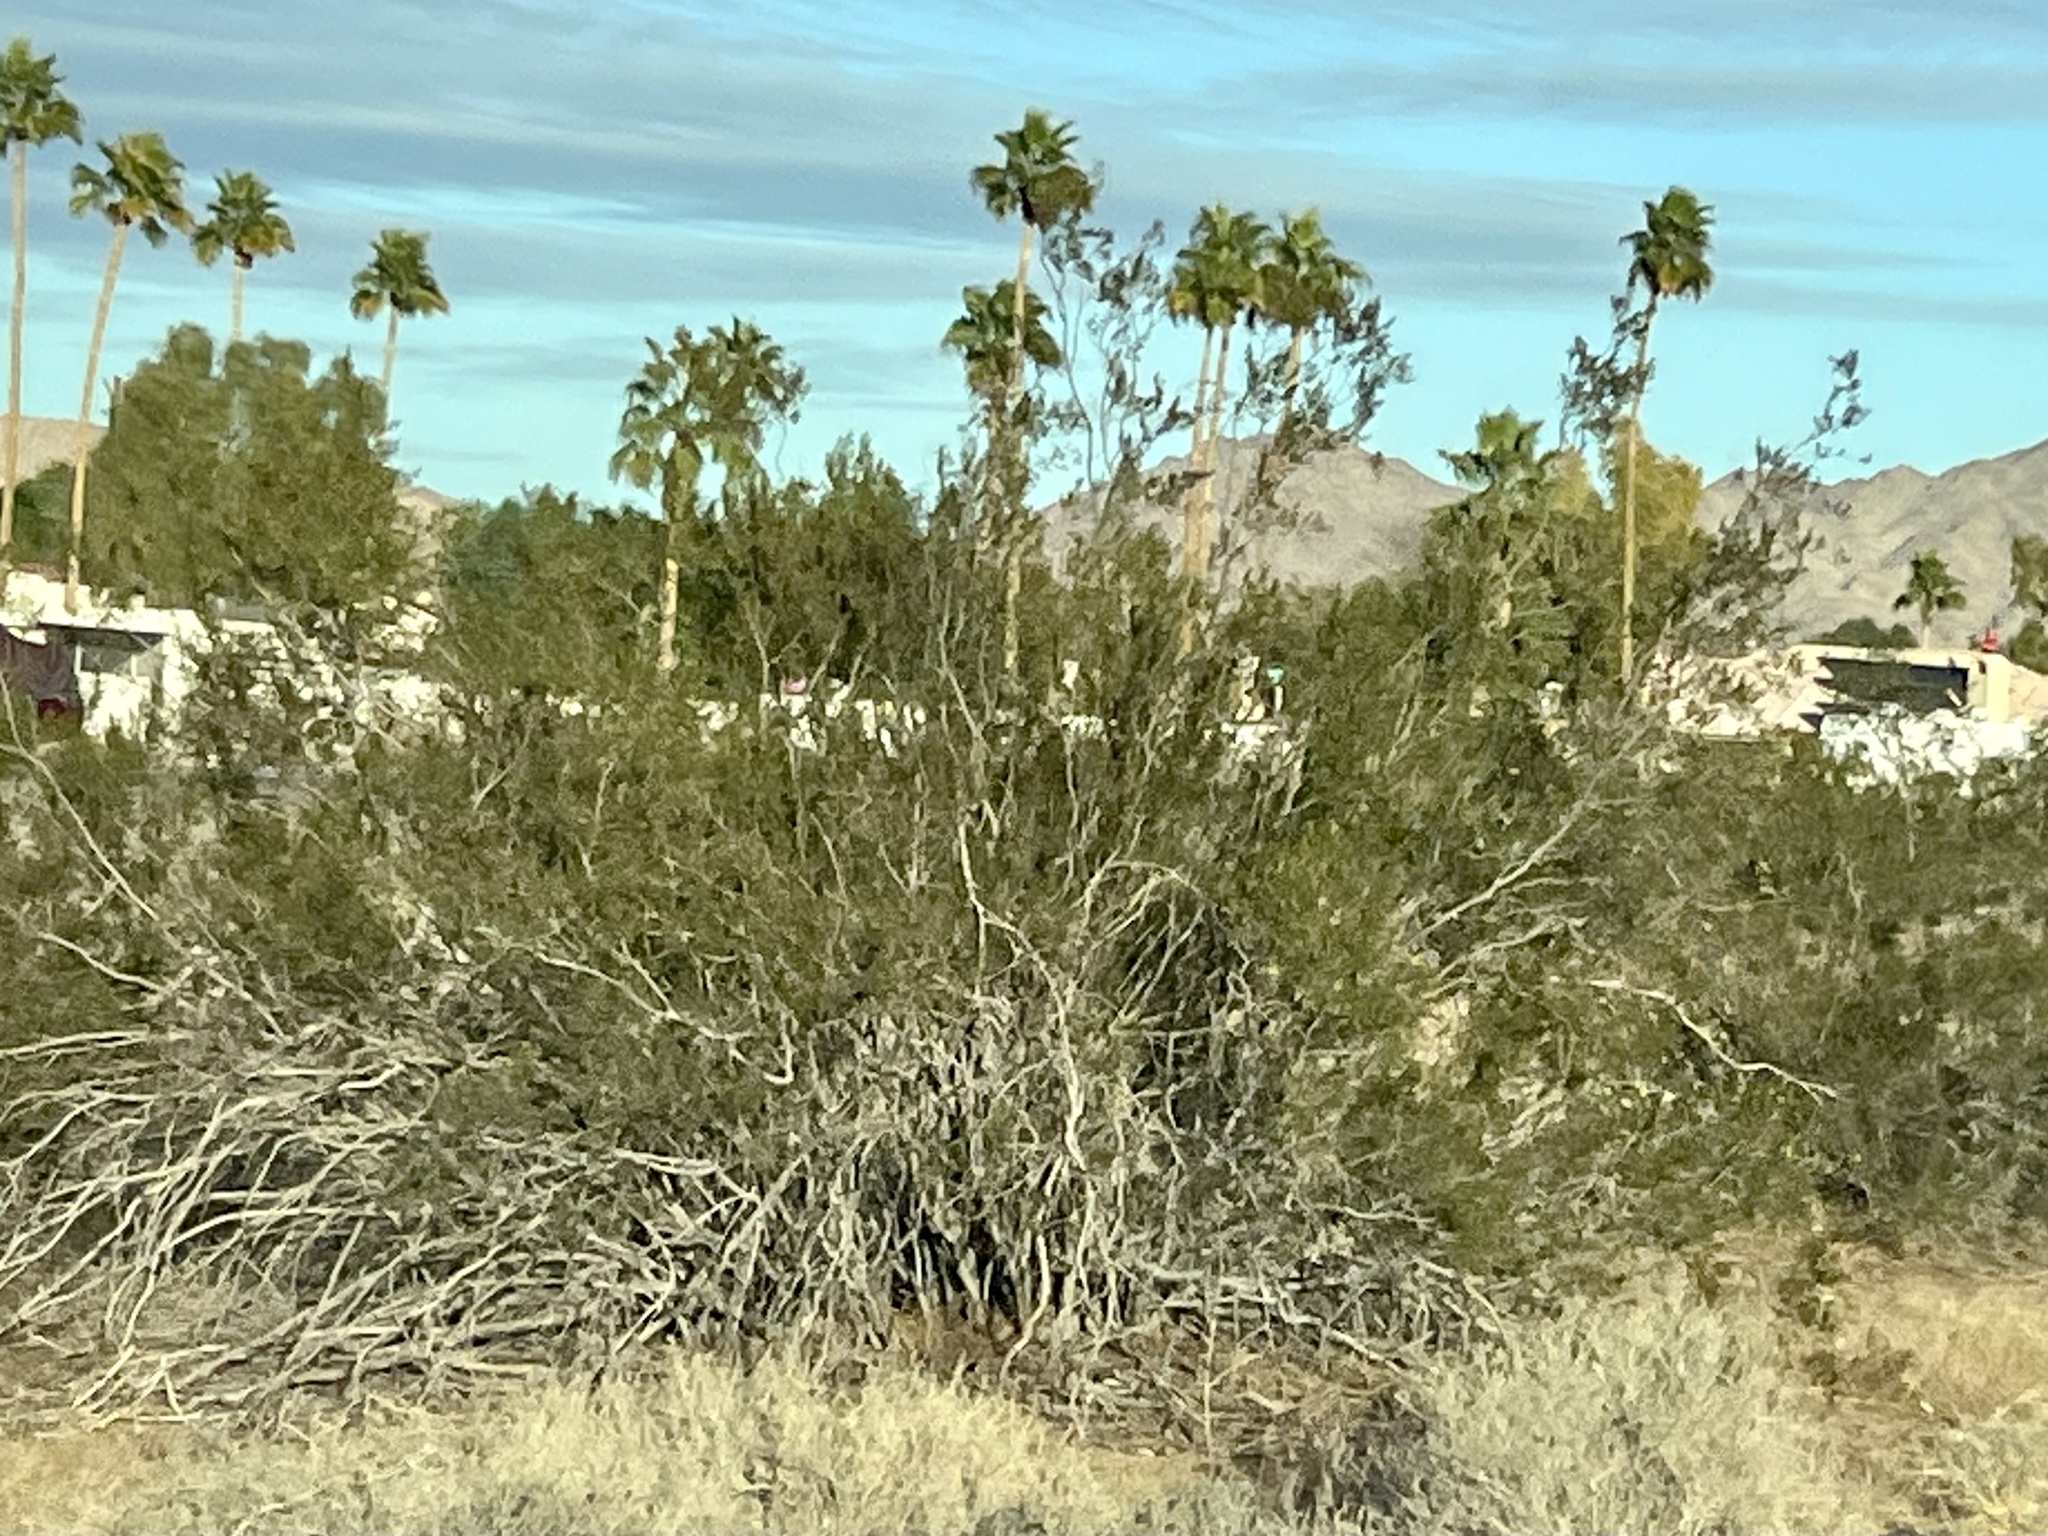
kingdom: Plantae
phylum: Tracheophyta
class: Magnoliopsida
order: Zygophyllales
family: Zygophyllaceae
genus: Larrea
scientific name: Larrea tridentata
